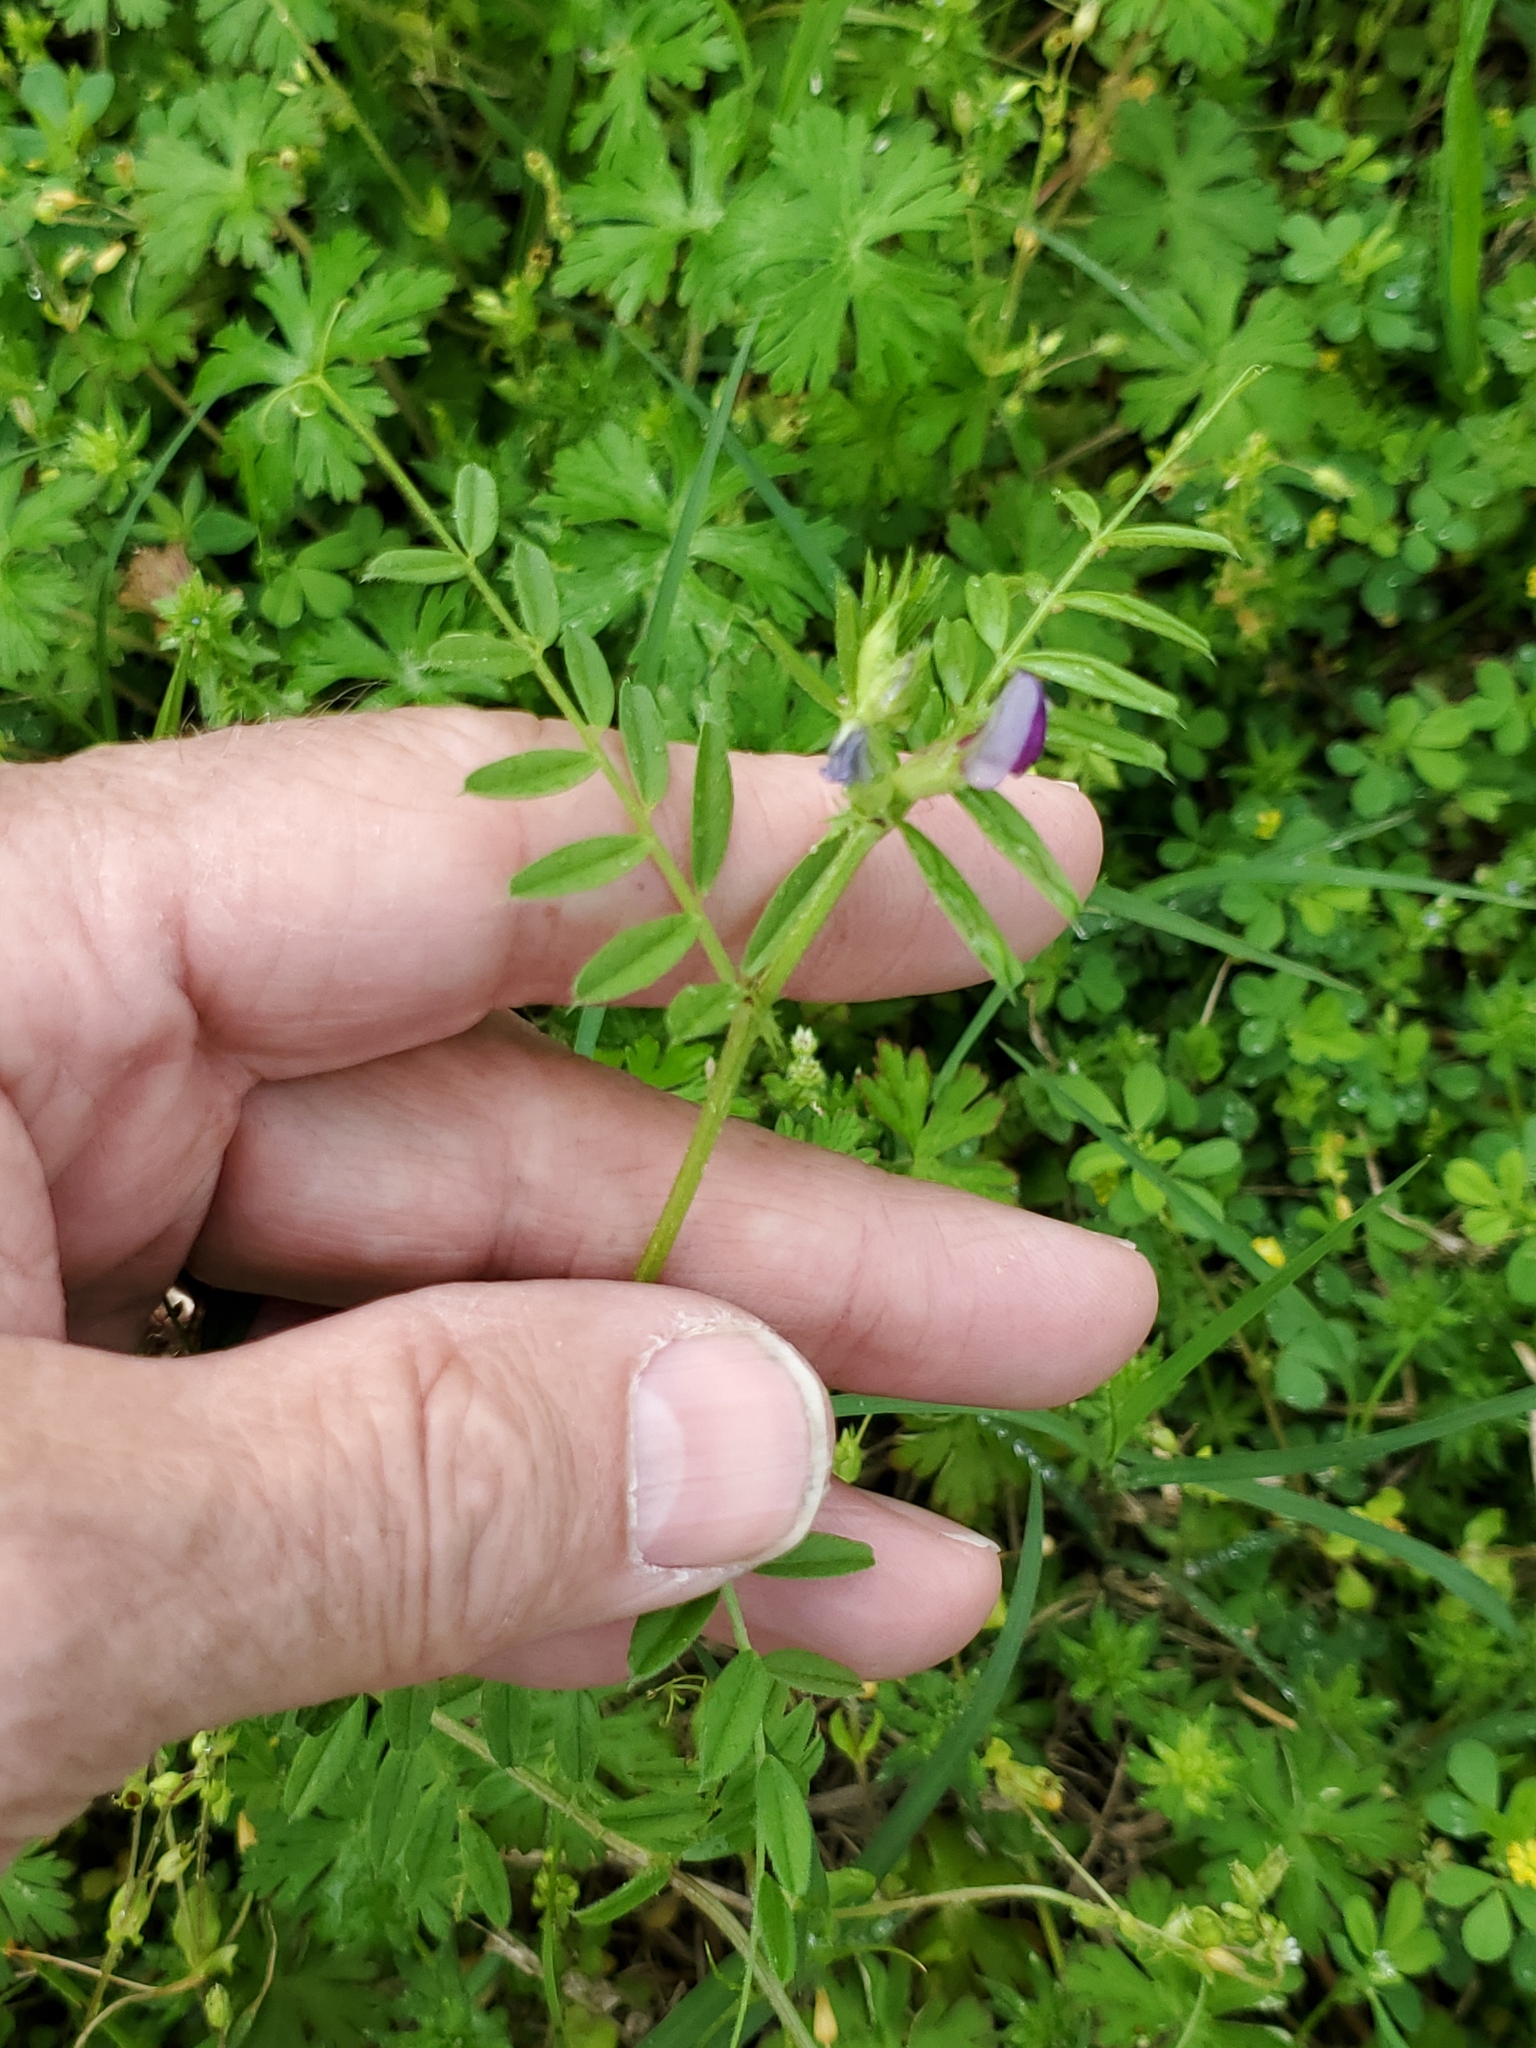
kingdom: Plantae
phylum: Tracheophyta
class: Magnoliopsida
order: Fabales
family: Fabaceae
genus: Vicia
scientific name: Vicia sativa
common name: Garden vetch
